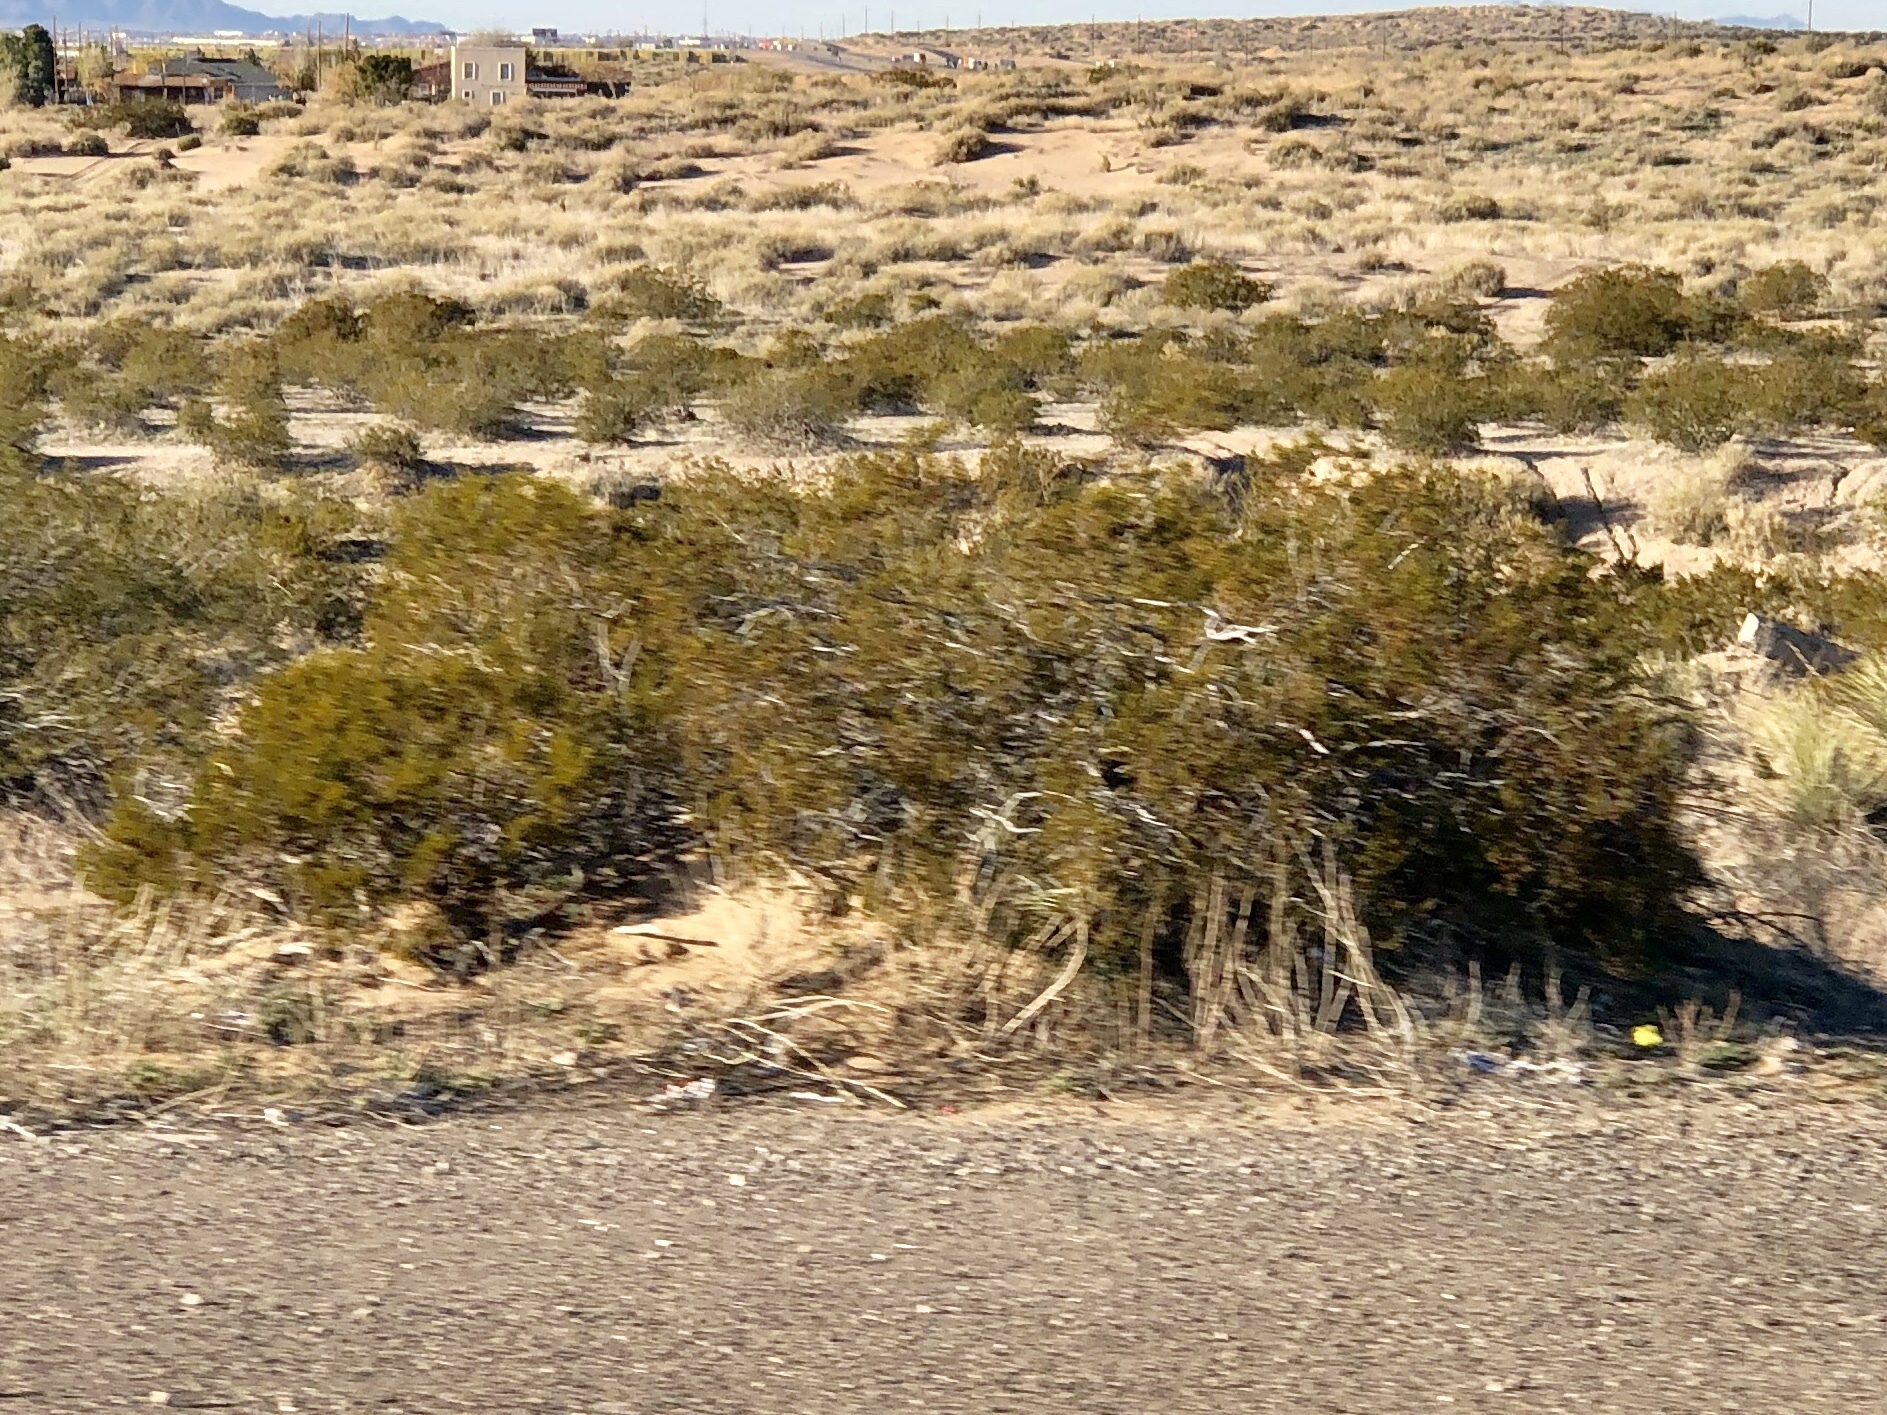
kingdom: Plantae
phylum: Tracheophyta
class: Magnoliopsida
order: Zygophyllales
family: Zygophyllaceae
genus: Larrea
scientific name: Larrea tridentata
